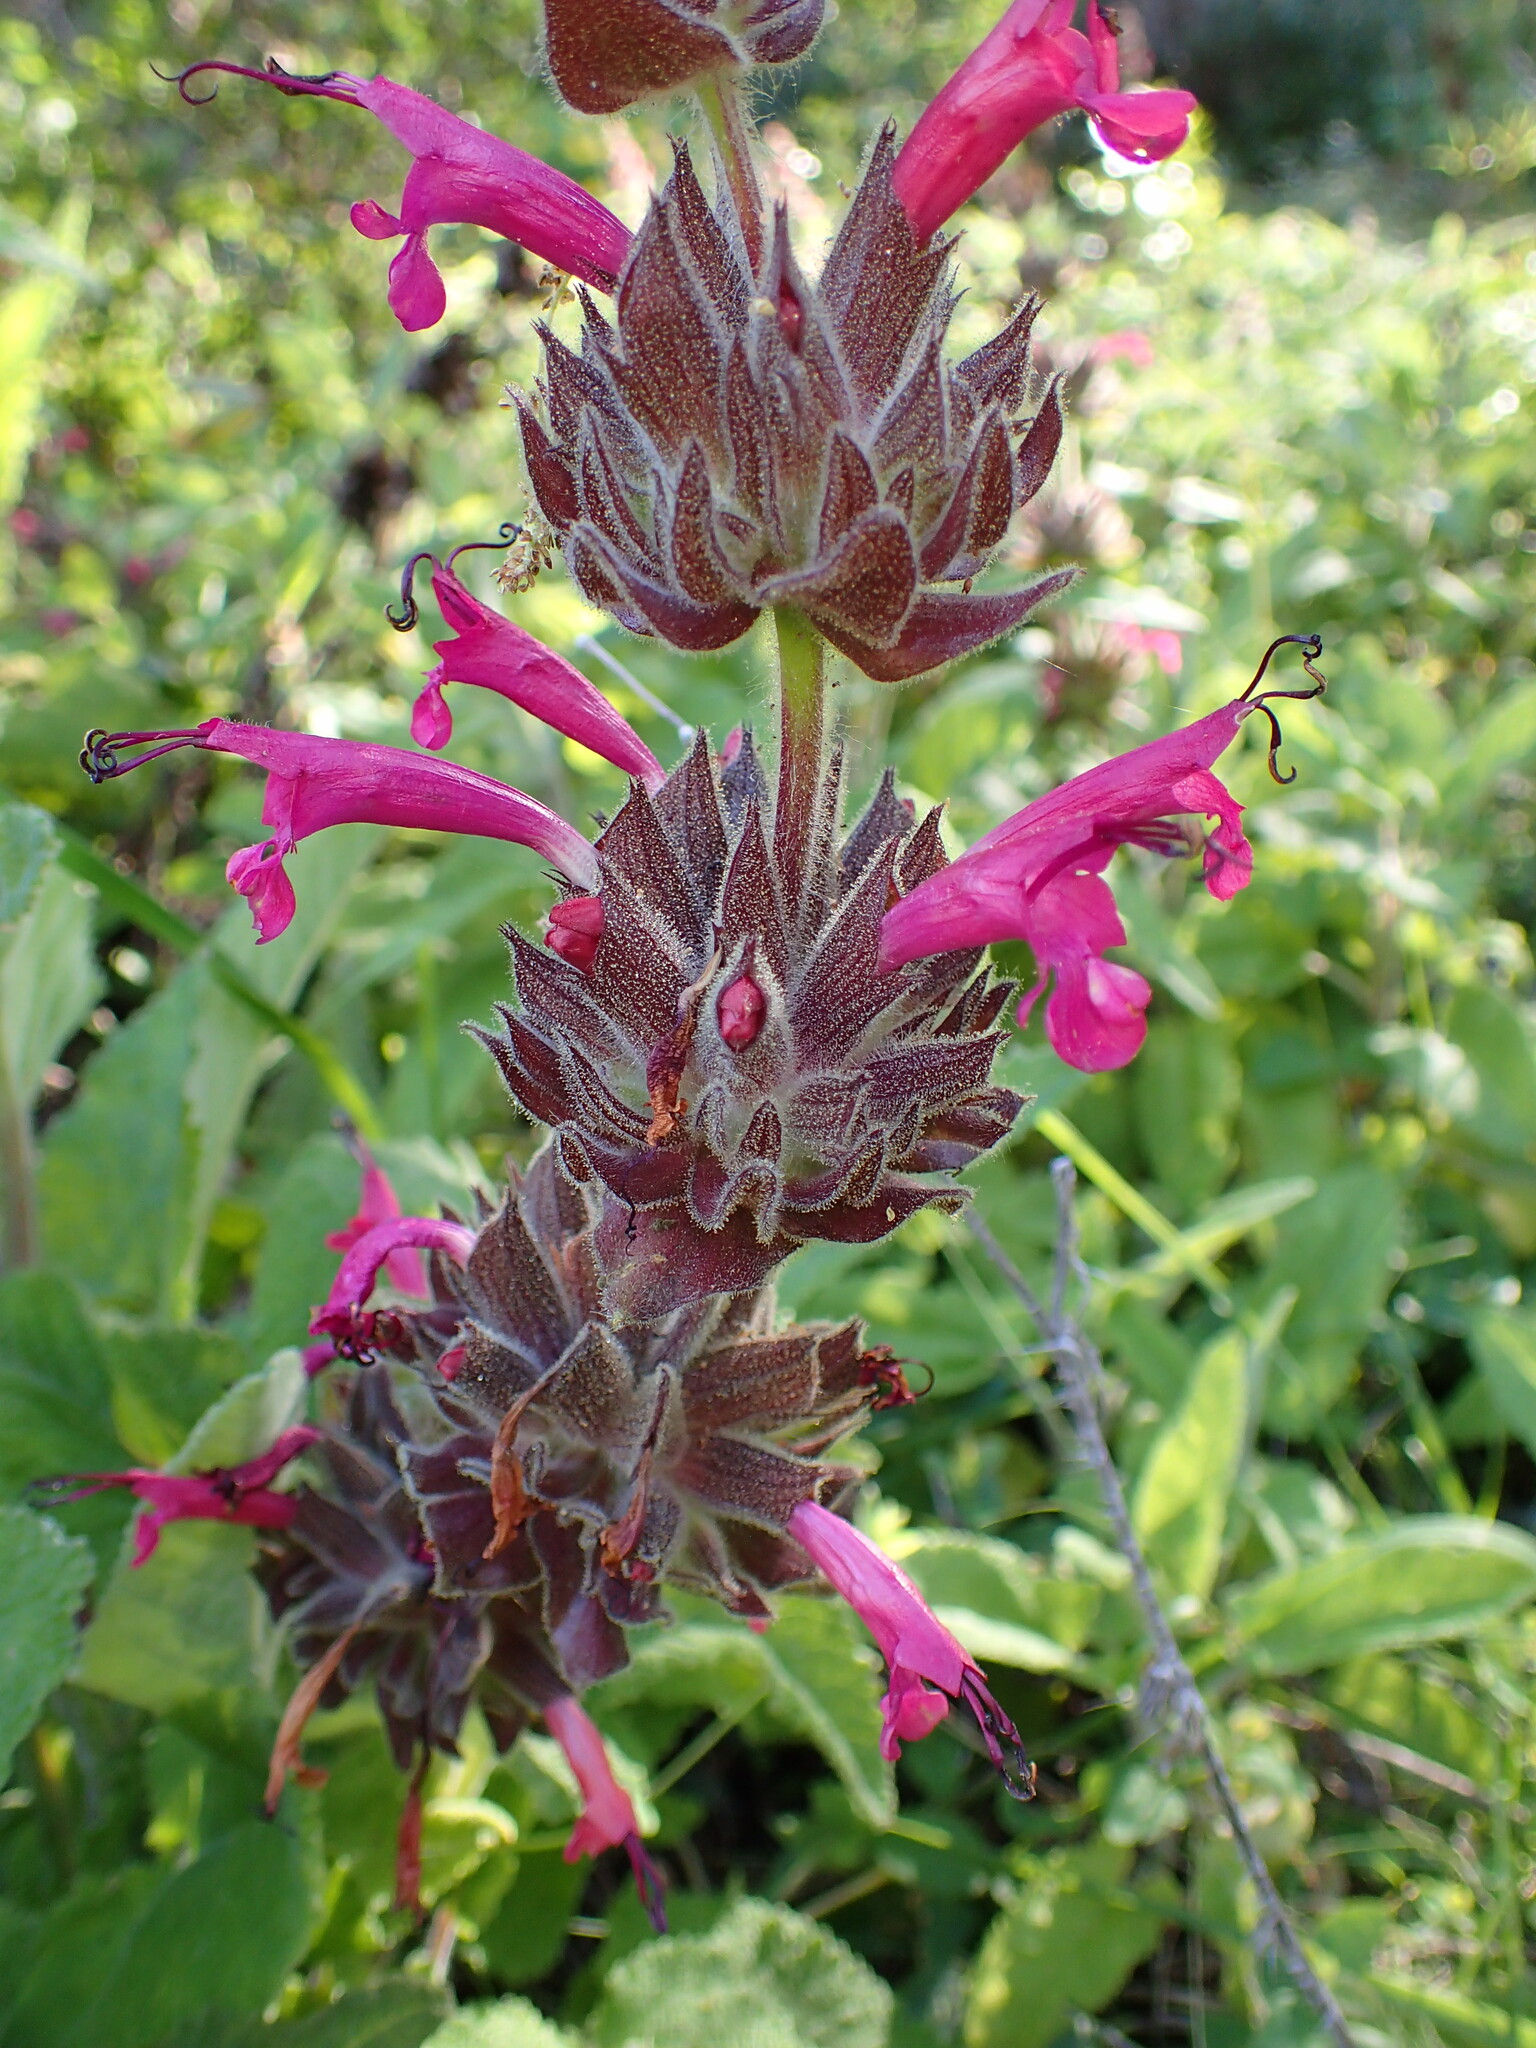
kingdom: Plantae
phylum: Tracheophyta
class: Magnoliopsida
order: Lamiales
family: Lamiaceae
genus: Salvia
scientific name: Salvia spathacea
